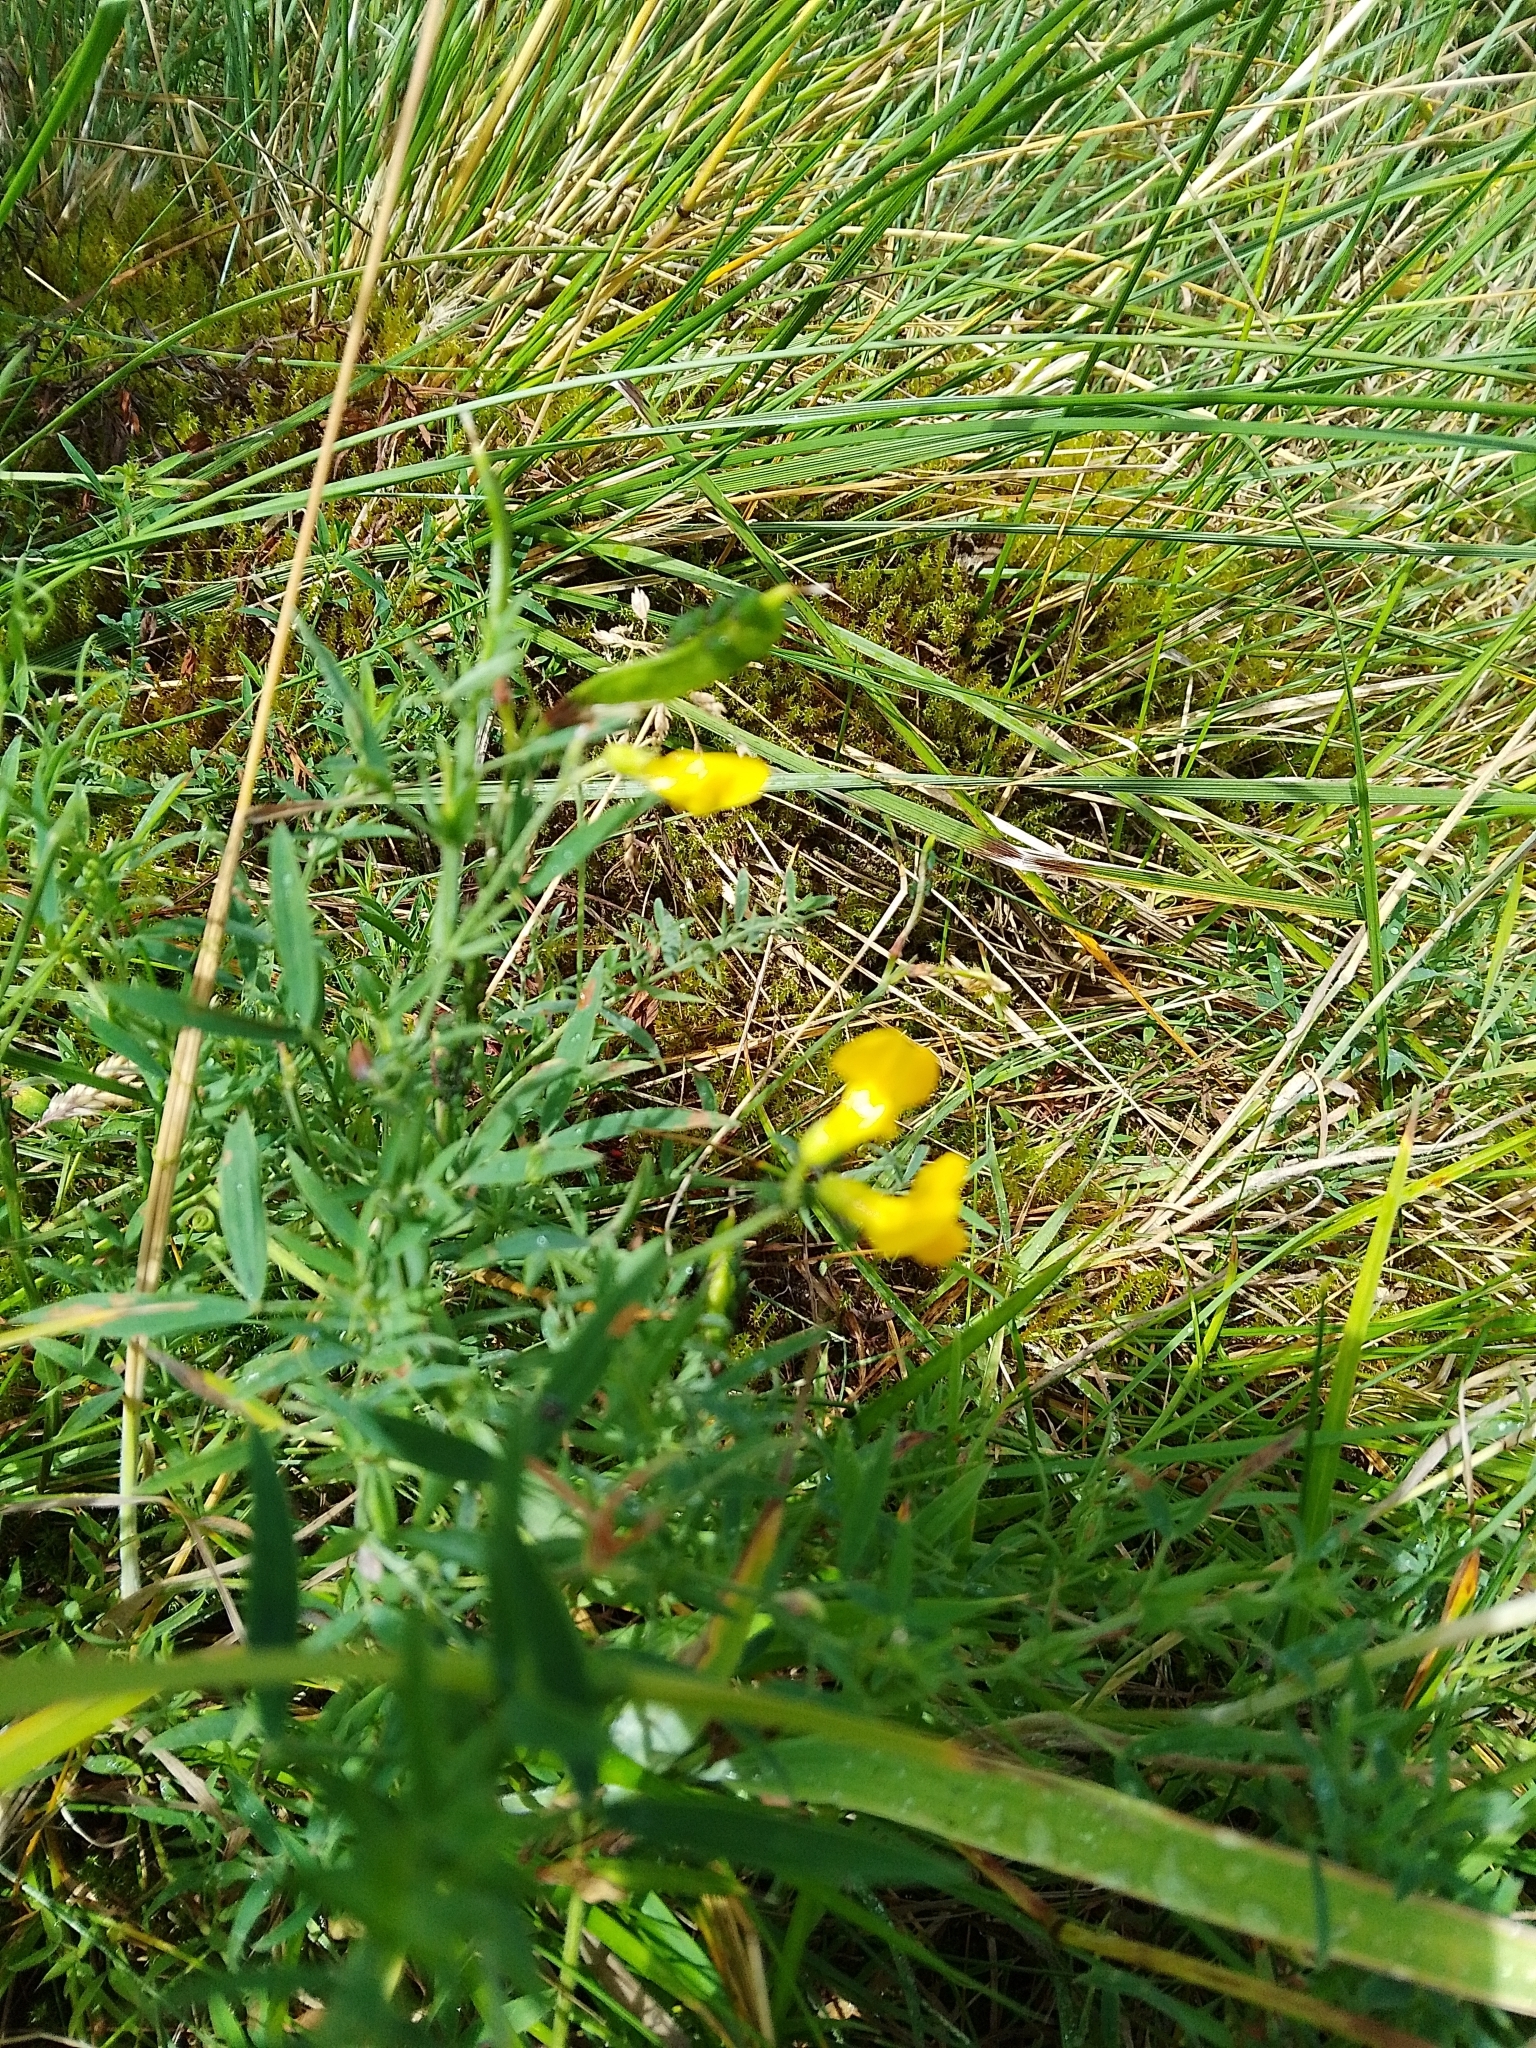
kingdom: Plantae
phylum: Tracheophyta
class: Magnoliopsida
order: Fabales
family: Fabaceae
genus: Lathyrus
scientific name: Lathyrus pratensis
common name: Meadow vetchling
